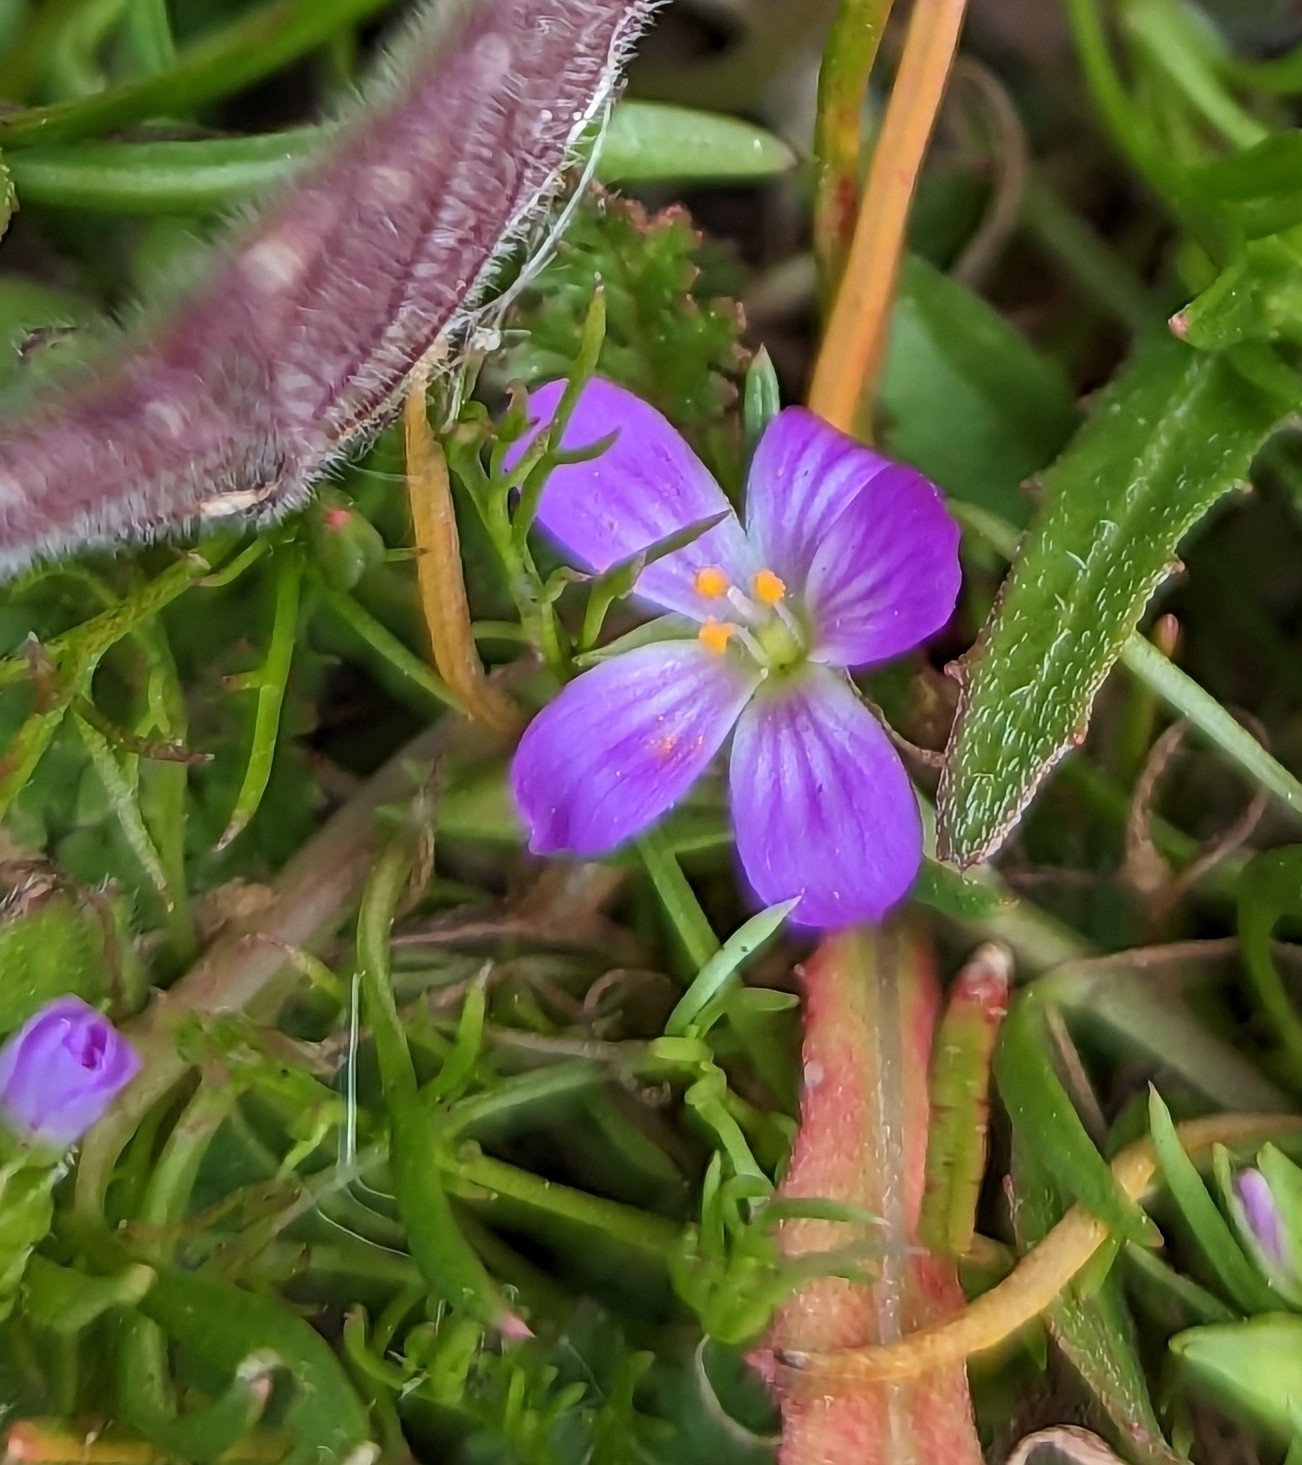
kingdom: Plantae
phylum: Tracheophyta
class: Magnoliopsida
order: Caryophyllales
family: Montiaceae
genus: Calandrinia
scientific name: Calandrinia menziesii
